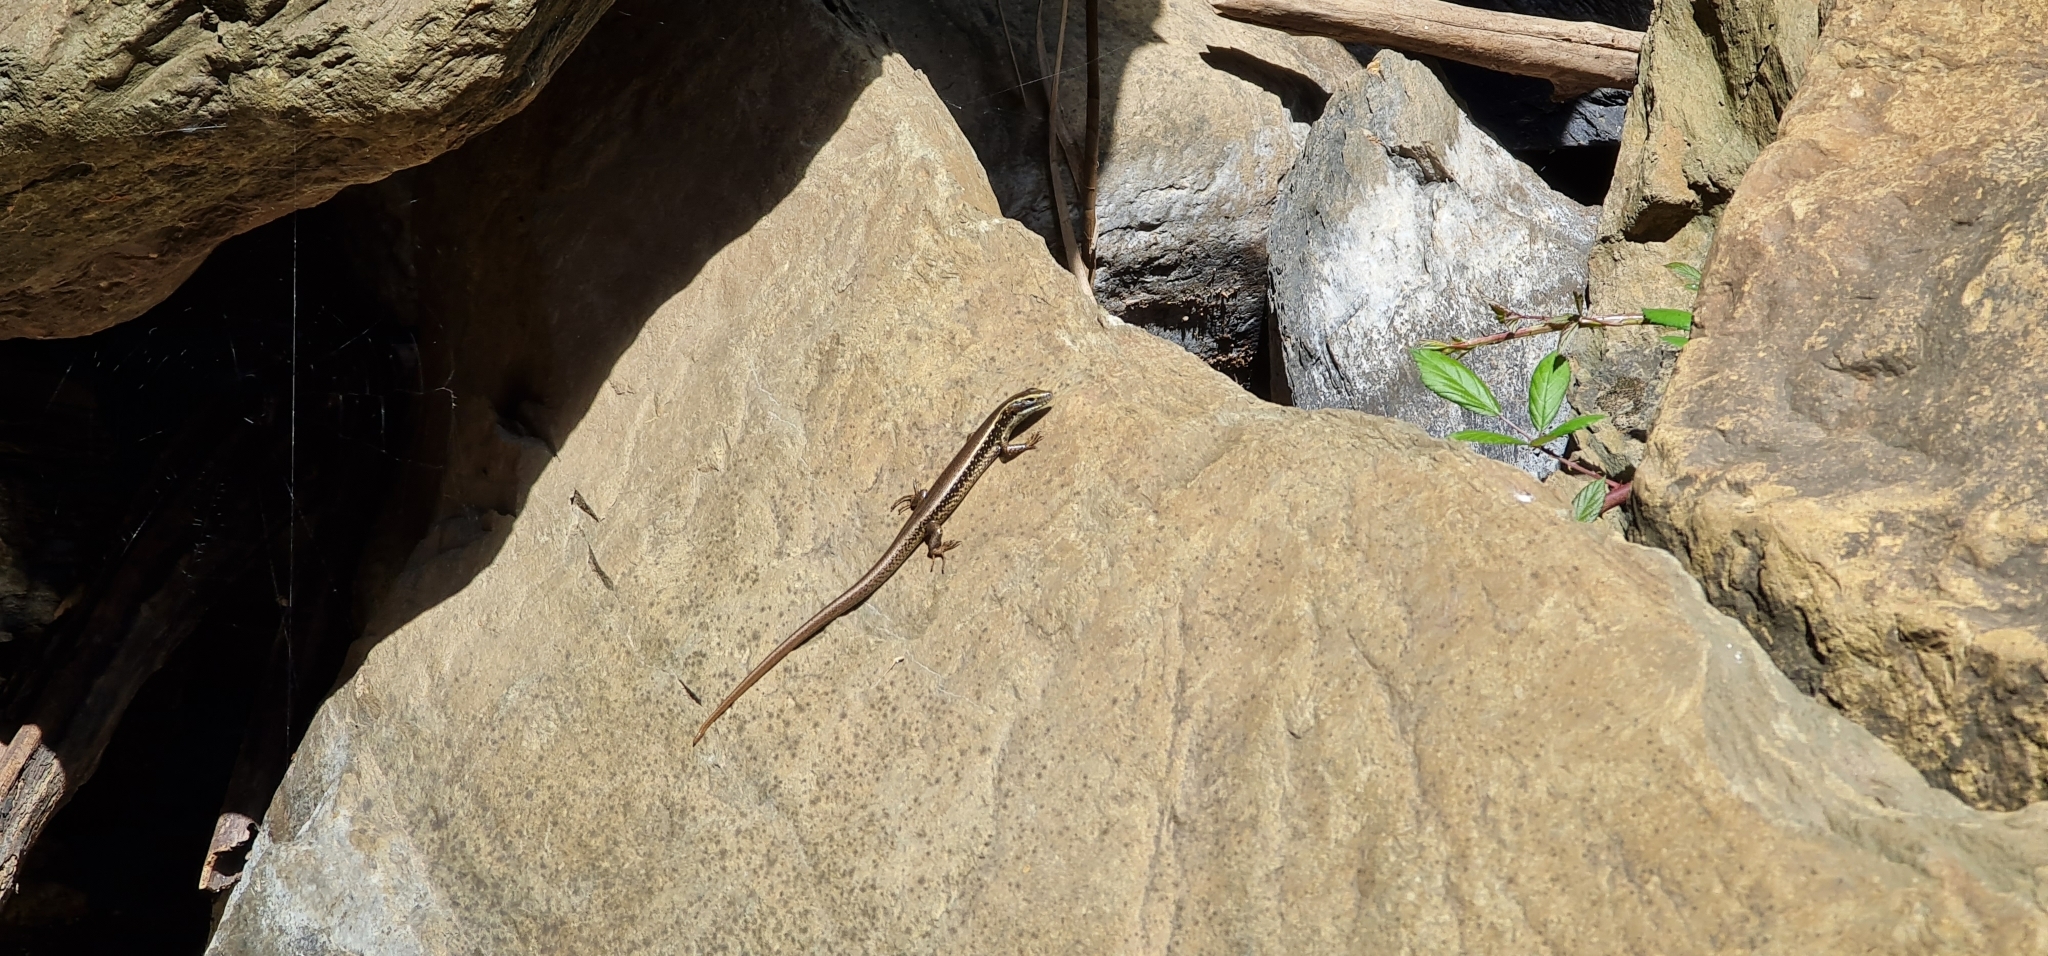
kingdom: Animalia
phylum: Chordata
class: Squamata
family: Scincidae
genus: Eulamprus
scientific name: Eulamprus quoyii
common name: Eastern water skink
